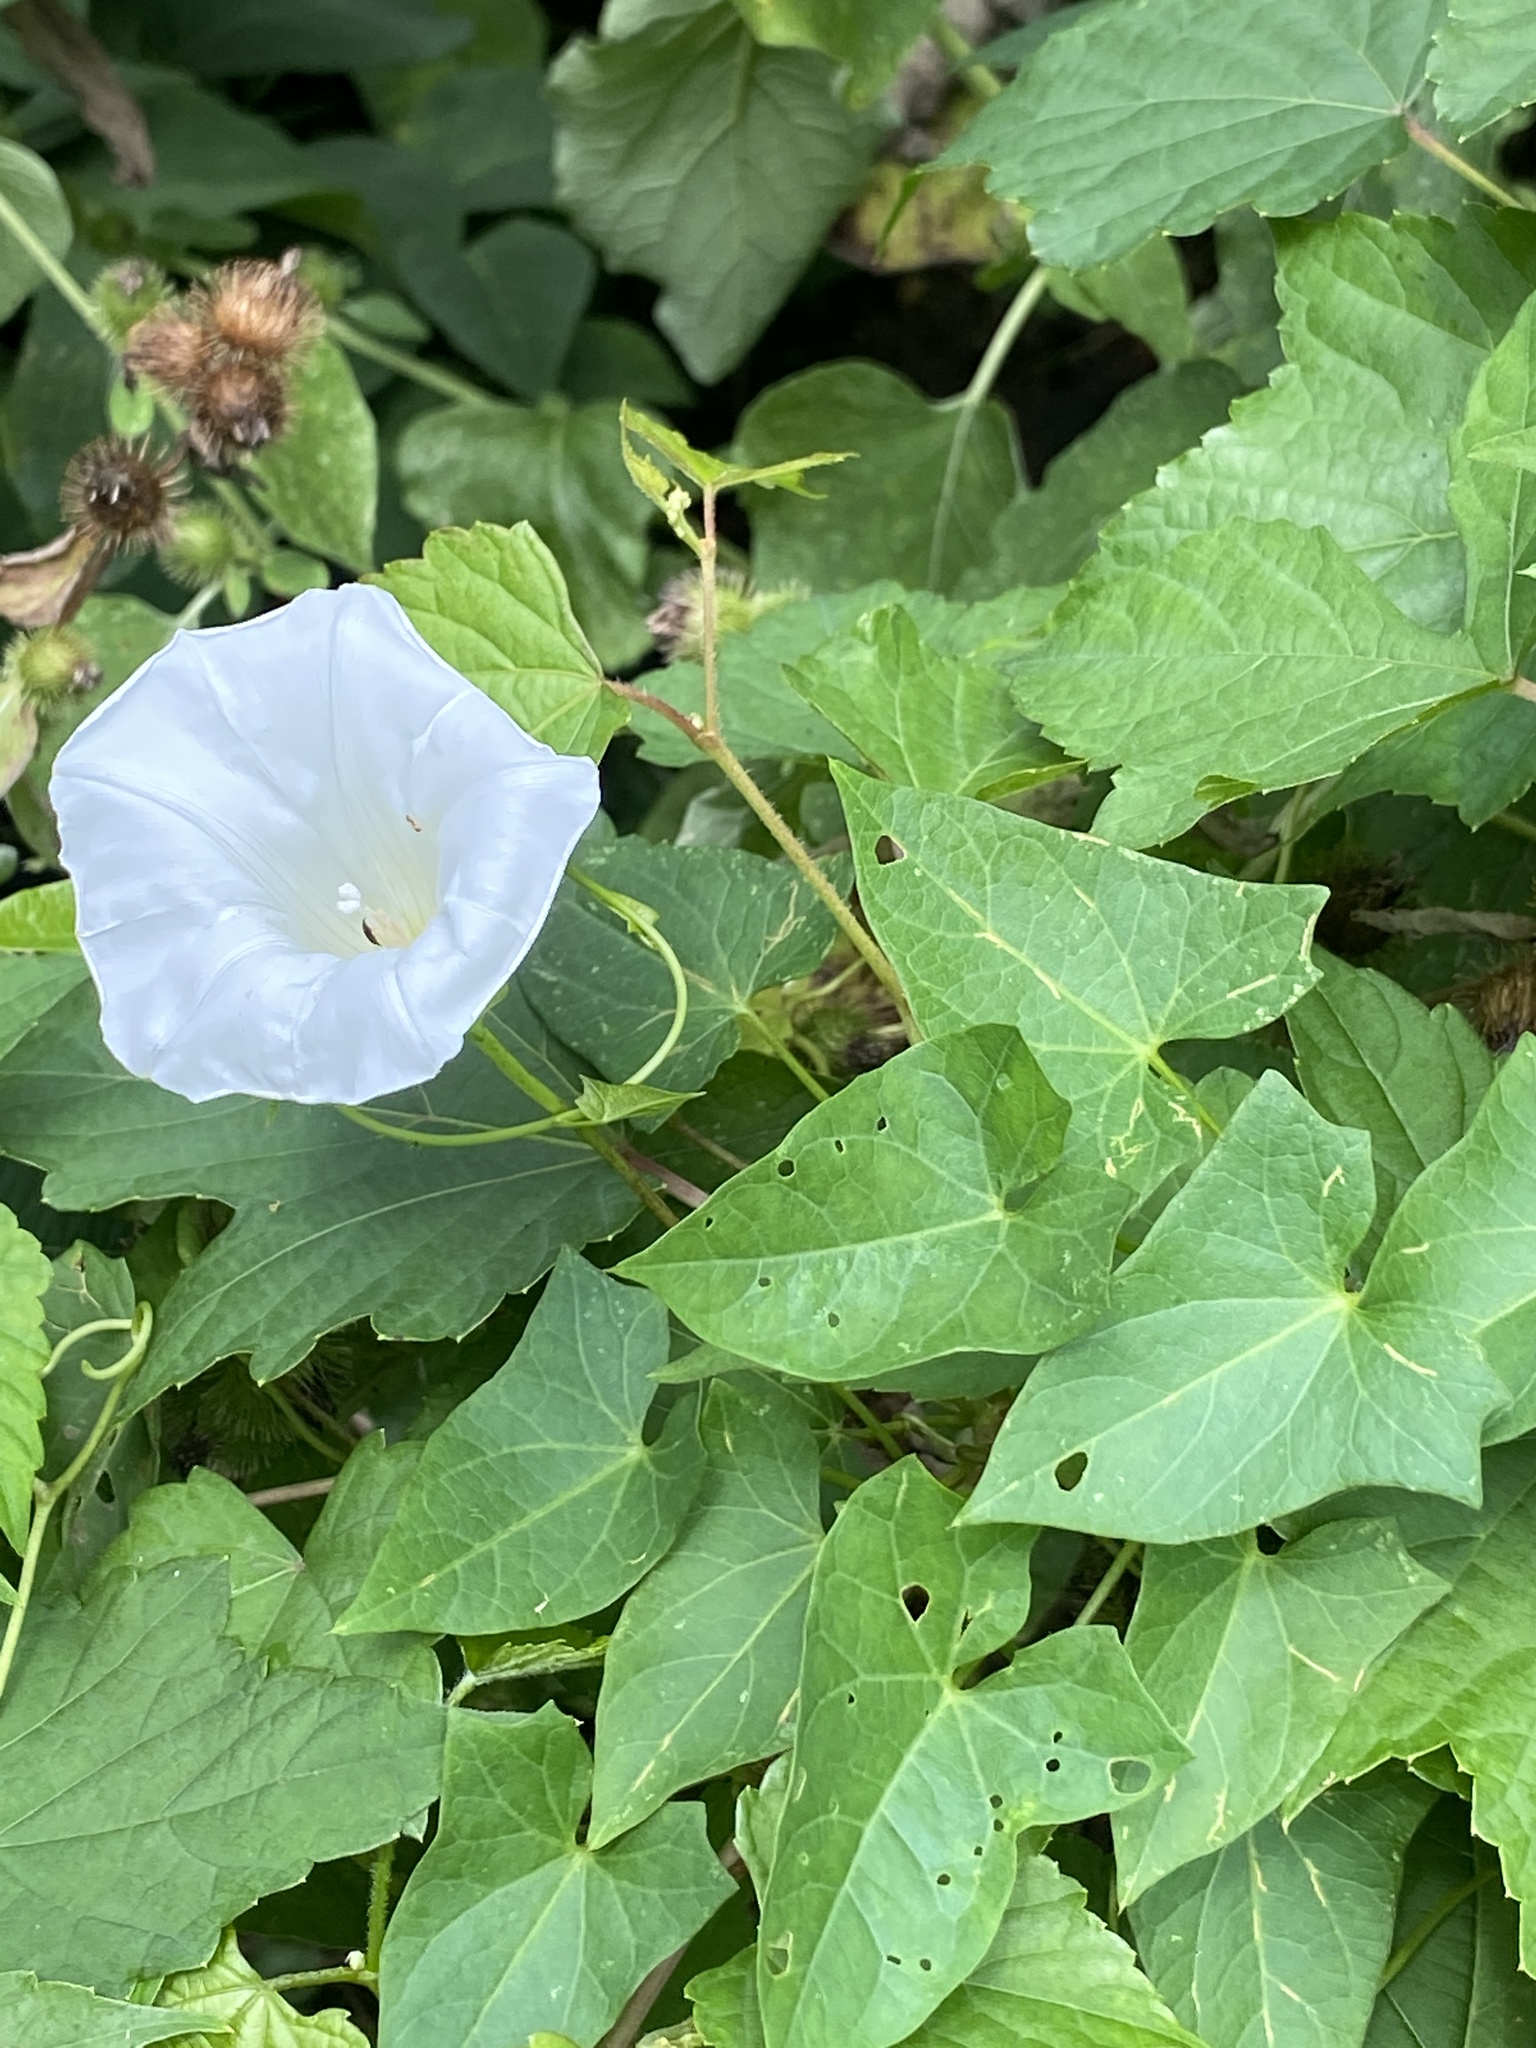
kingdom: Plantae
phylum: Tracheophyta
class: Magnoliopsida
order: Solanales
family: Convolvulaceae
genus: Calystegia
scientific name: Calystegia sepium
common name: Hedge bindweed
